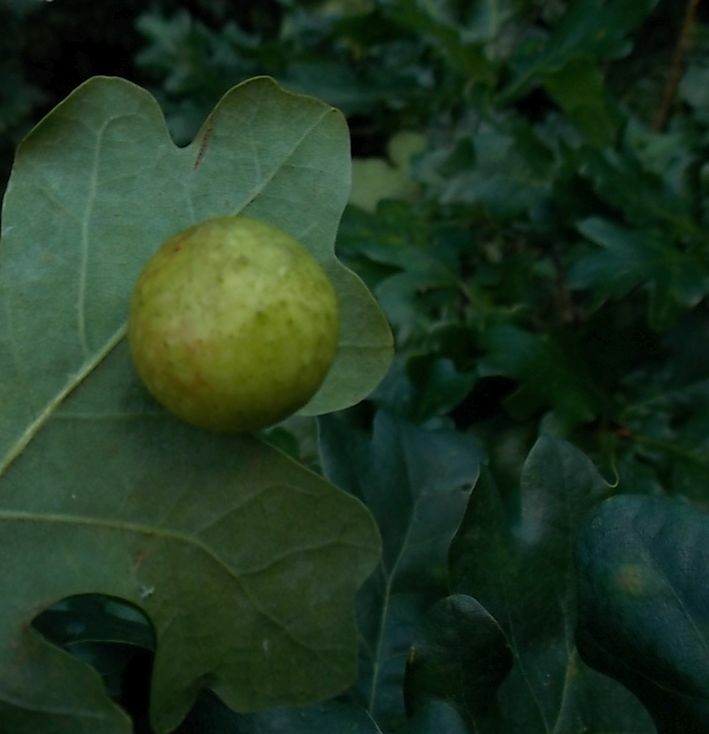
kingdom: Animalia
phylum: Arthropoda
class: Insecta
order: Hymenoptera
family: Cynipidae
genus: Cynips
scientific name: Cynips quercusfolii
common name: Cherry gall
